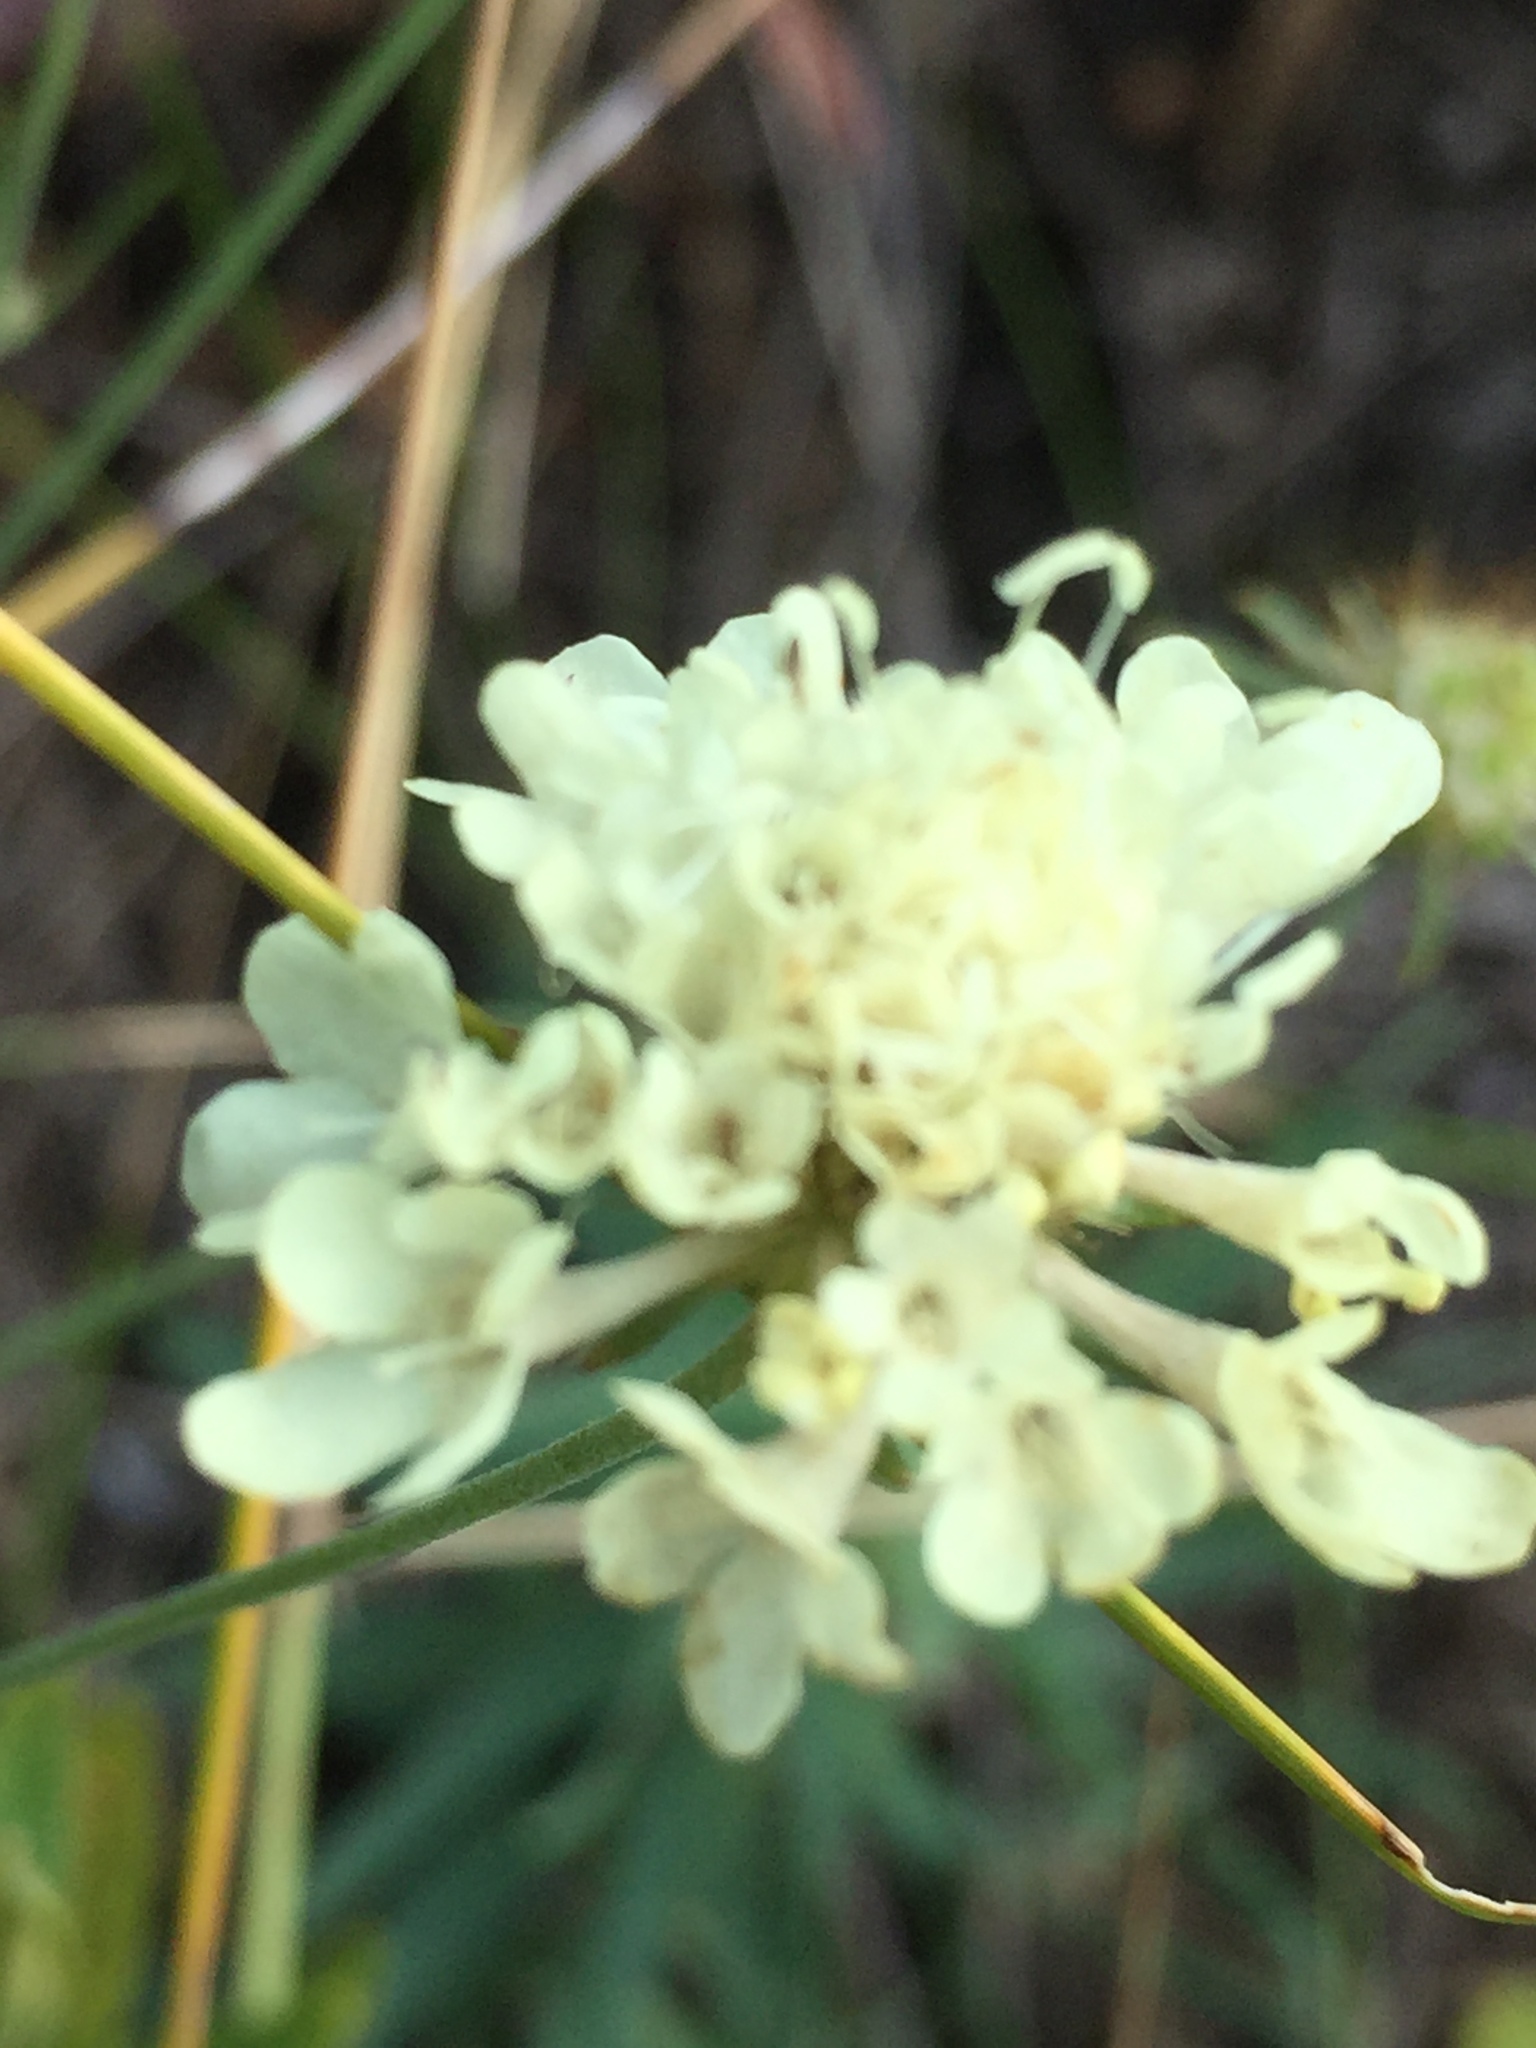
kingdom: Plantae
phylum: Tracheophyta
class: Magnoliopsida
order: Dipsacales
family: Caprifoliaceae
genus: Scabiosa
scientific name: Scabiosa ochroleuca
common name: Cream pincushions
